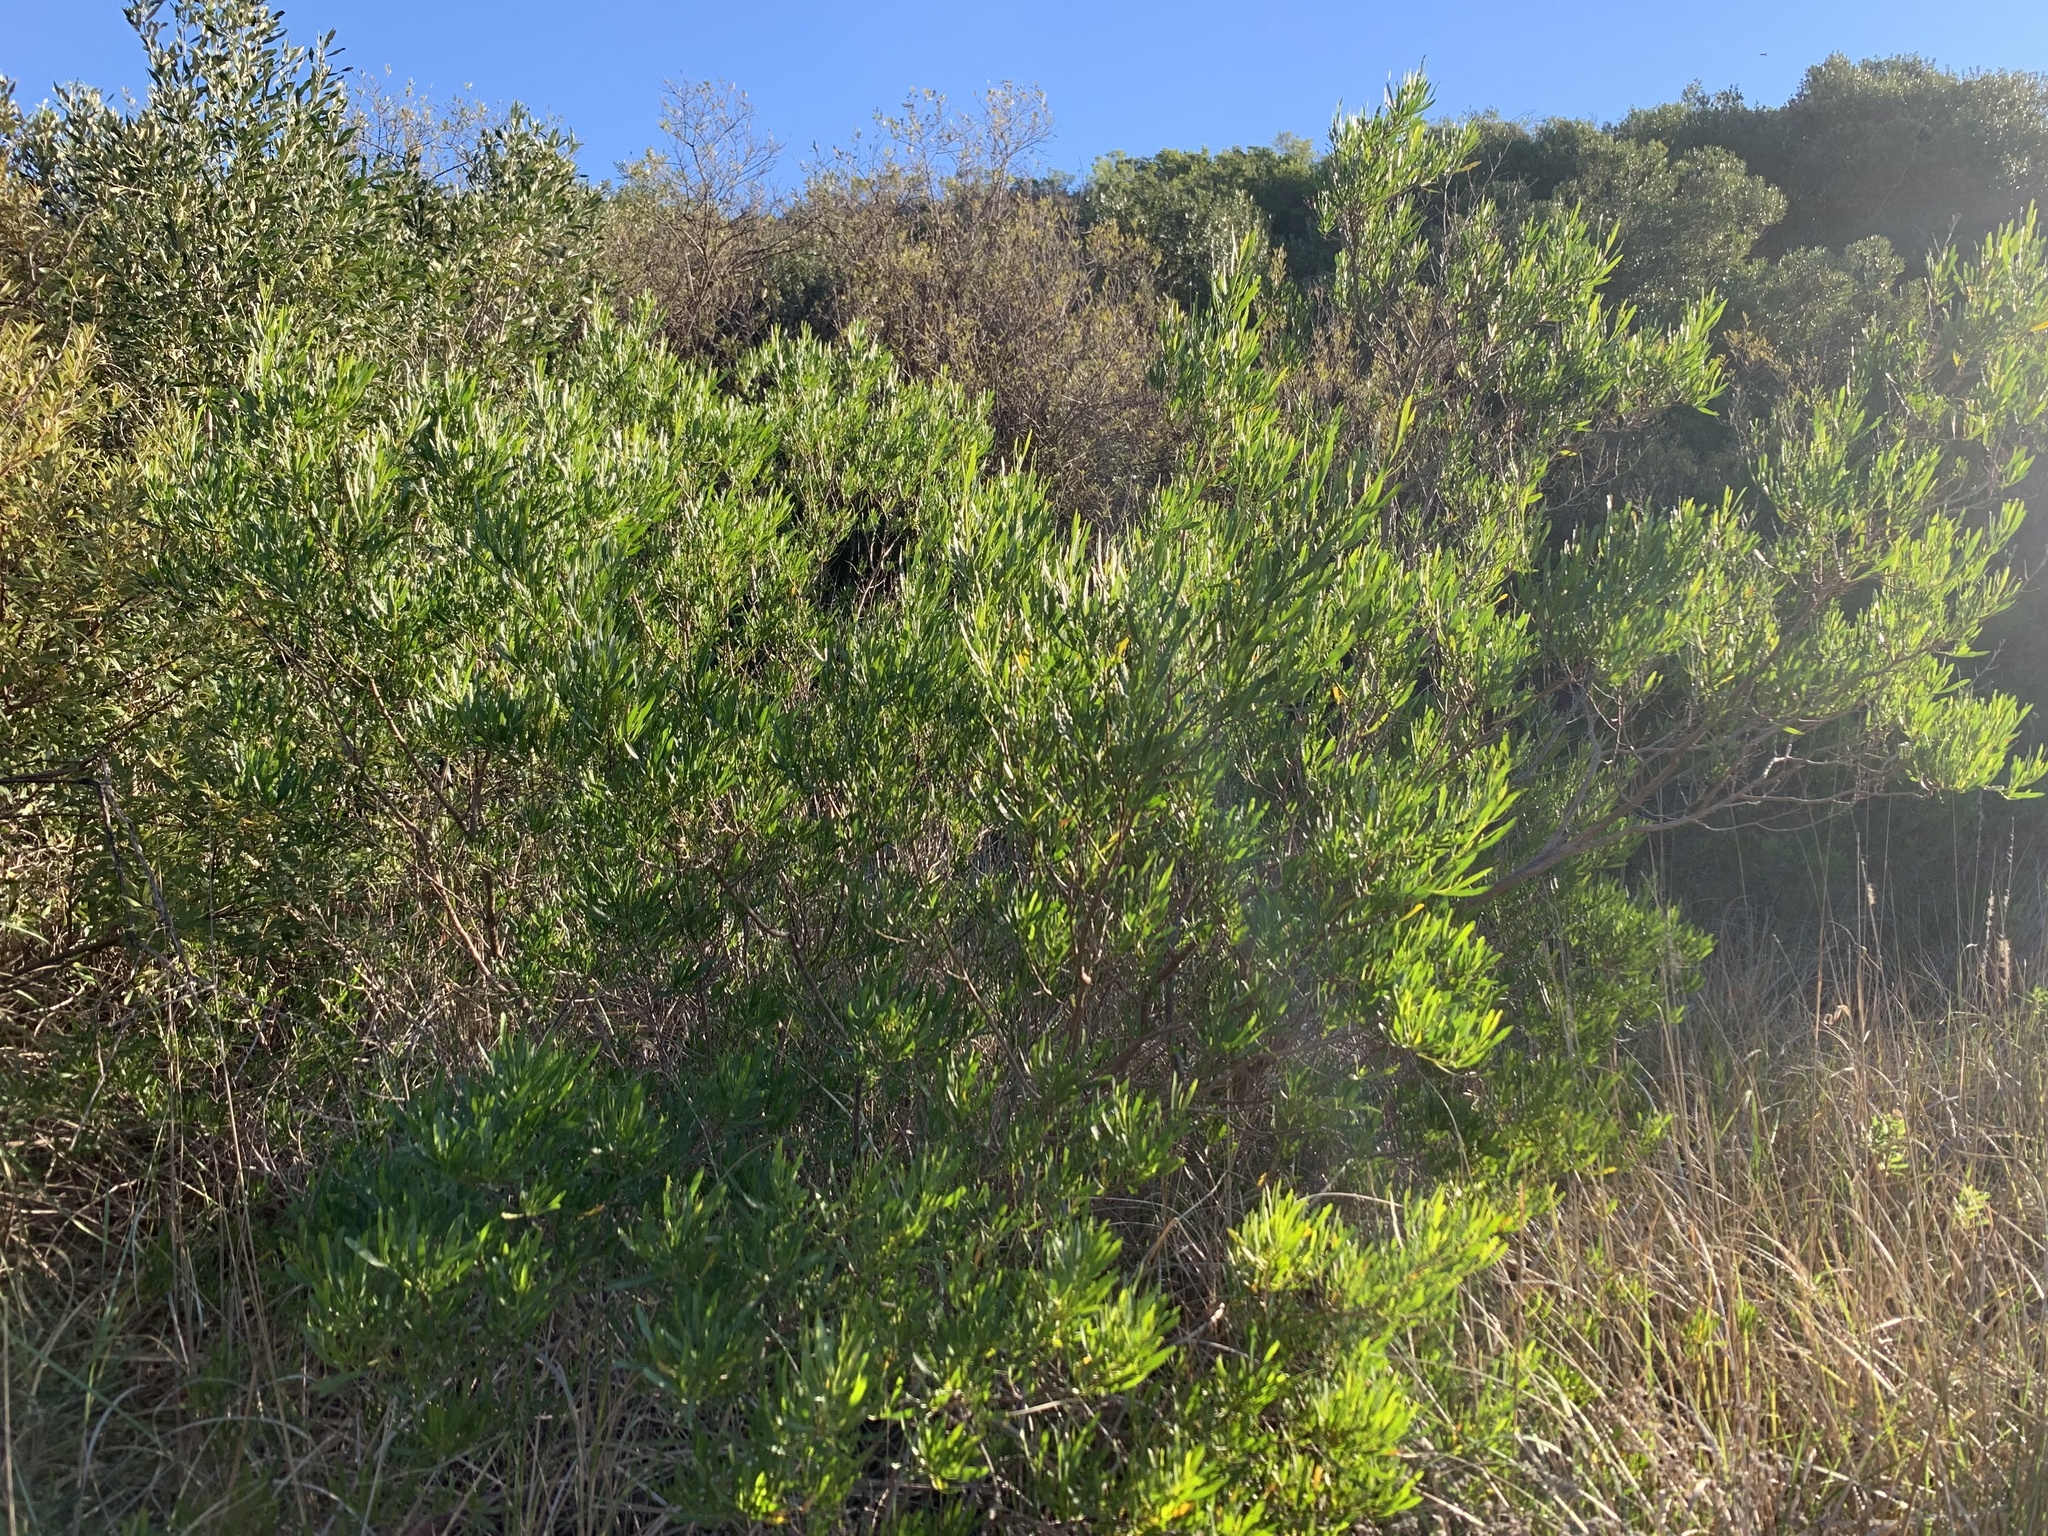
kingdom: Plantae
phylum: Tracheophyta
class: Magnoliopsida
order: Sapindales
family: Sapindaceae
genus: Dodonaea
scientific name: Dodonaea viscosa
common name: Hopbush
